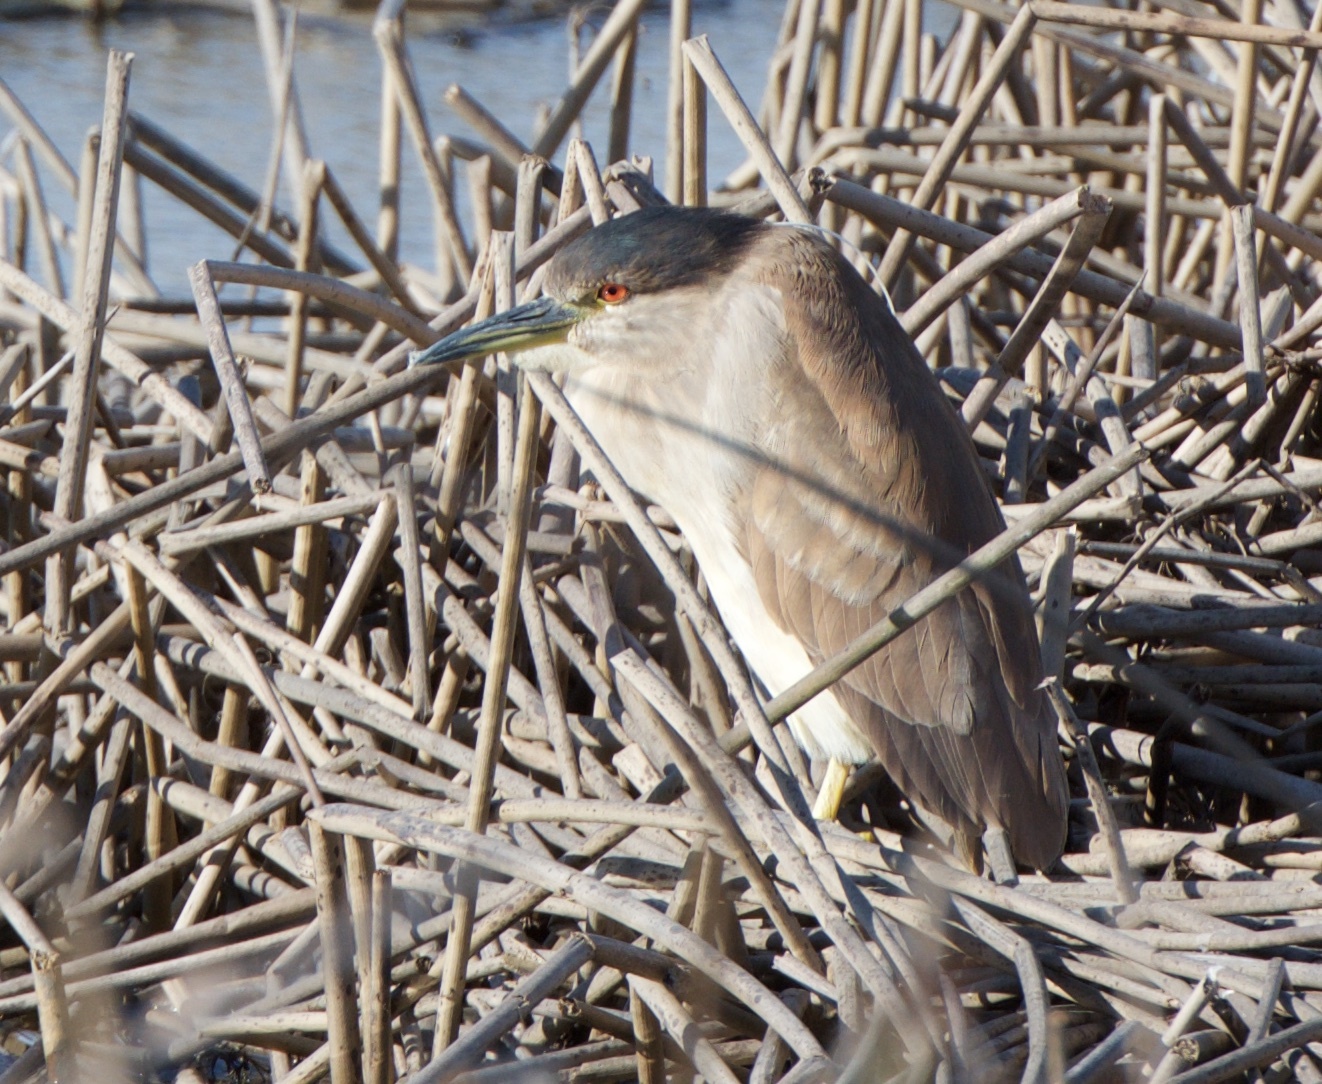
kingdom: Animalia
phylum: Chordata
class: Aves
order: Pelecaniformes
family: Ardeidae
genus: Nycticorax
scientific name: Nycticorax nycticorax
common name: Black-crowned night heron
